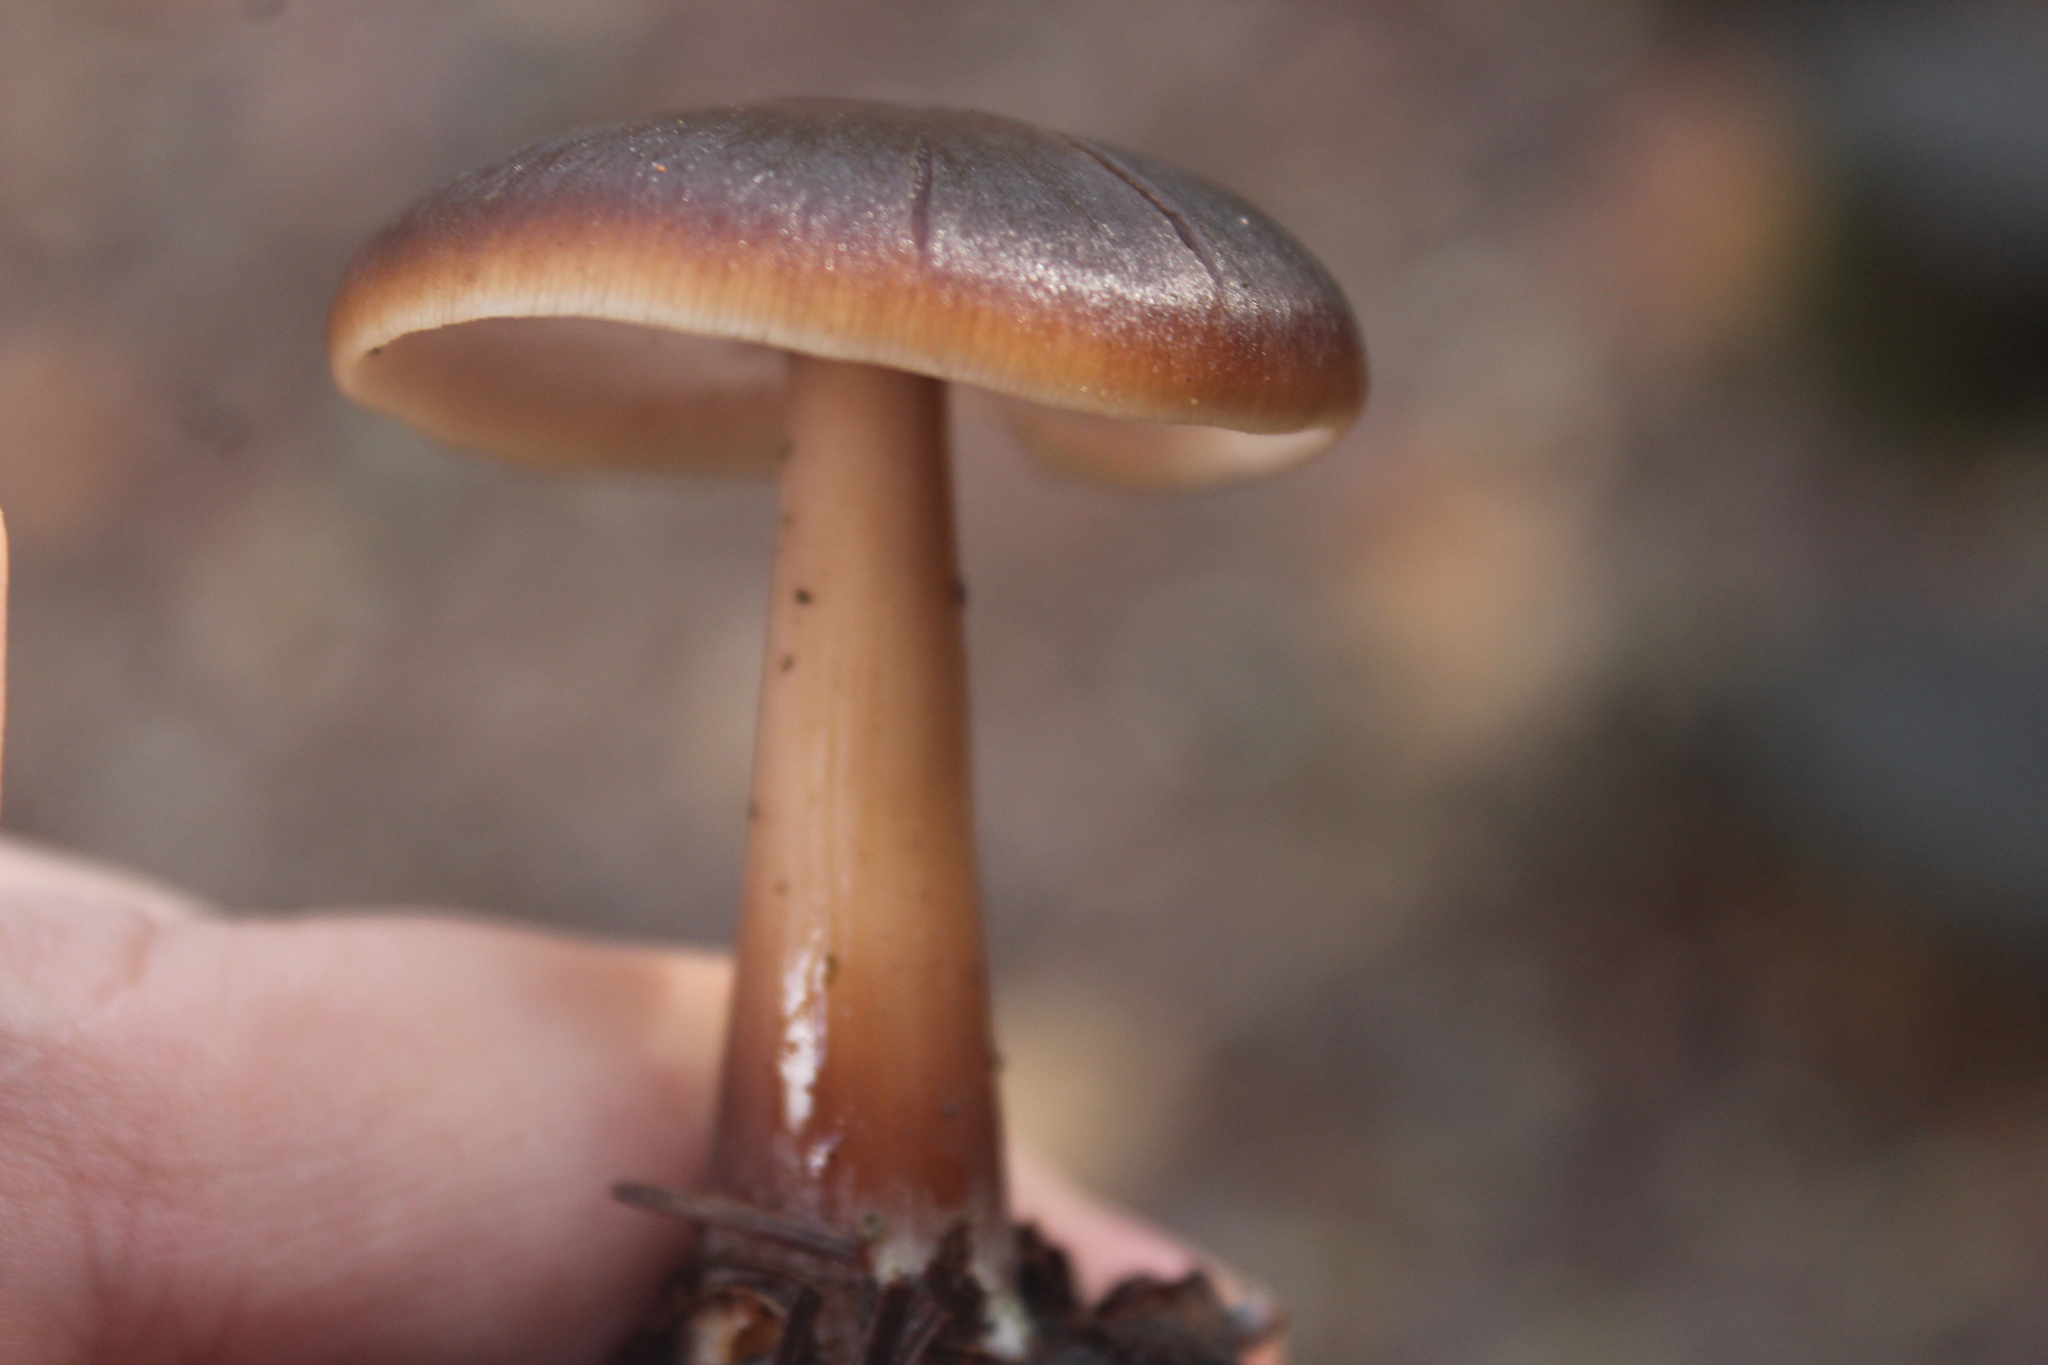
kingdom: Fungi
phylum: Basidiomycota
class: Agaricomycetes
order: Agaricales
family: Omphalotaceae
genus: Rhodocollybia
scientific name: Rhodocollybia butyracea
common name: Butter cap
